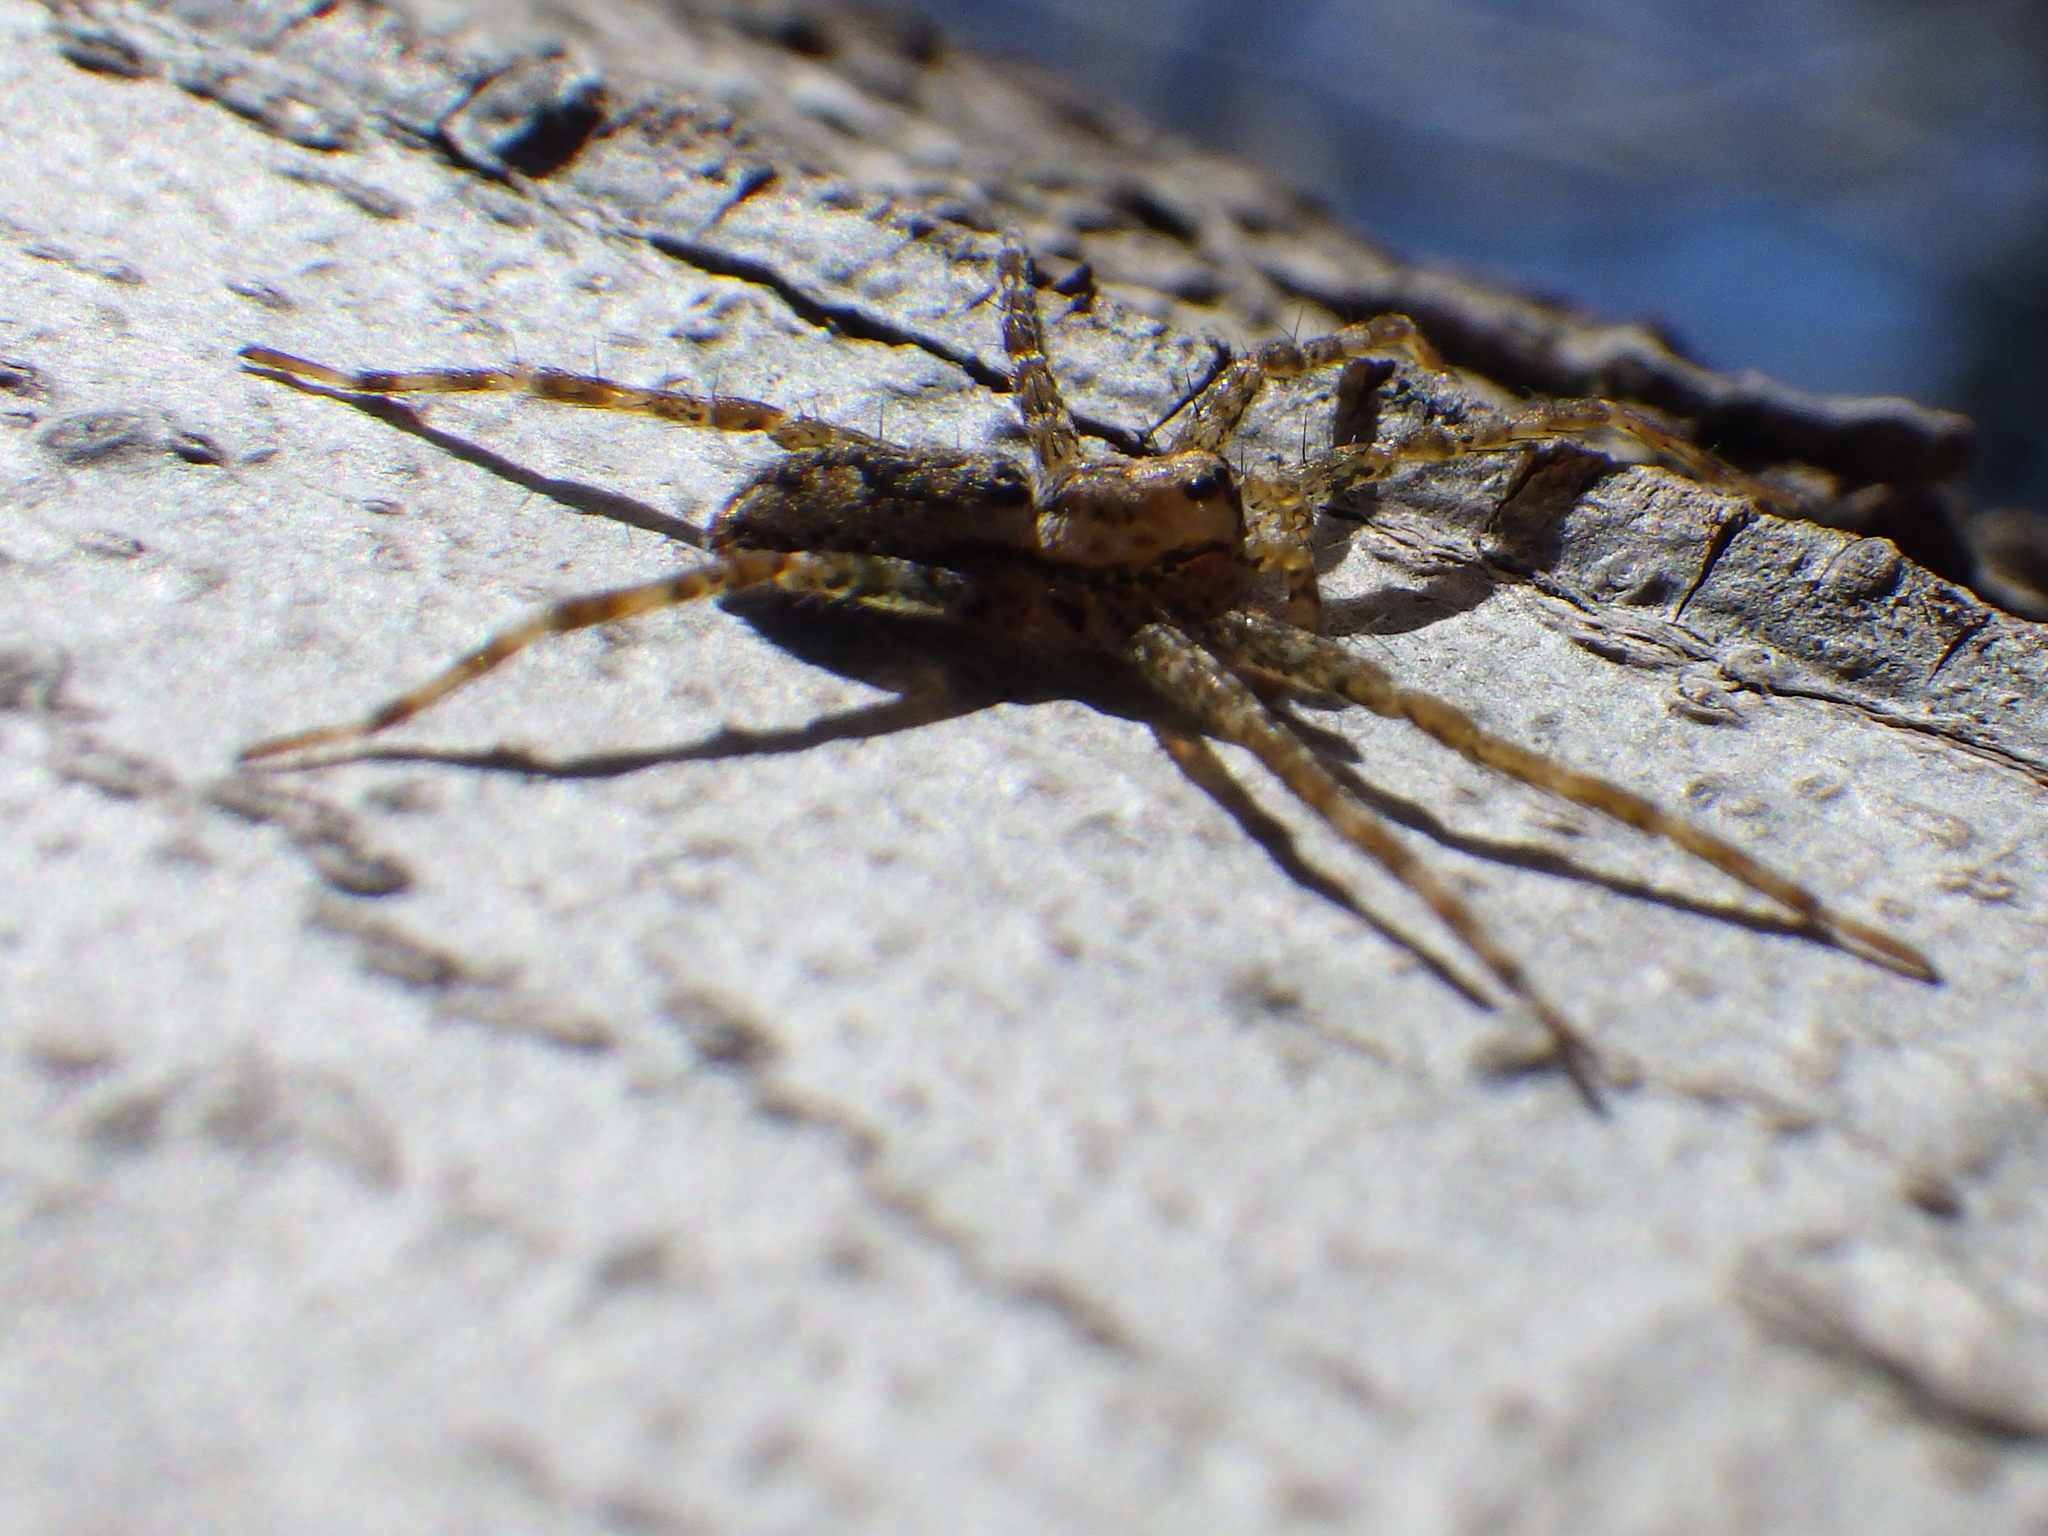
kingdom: Animalia
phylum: Arthropoda
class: Arachnida
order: Araneae
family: Pisauridae
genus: Dolomedes
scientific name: Dolomedes tenebrosus
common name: Dark fishing spider
